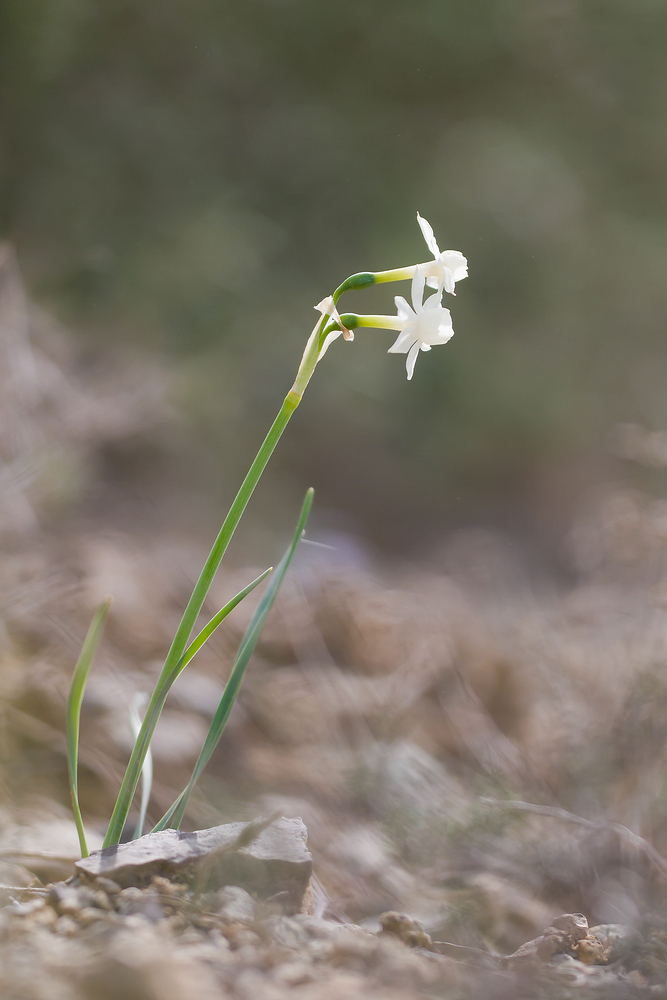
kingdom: Plantae
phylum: Tracheophyta
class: Liliopsida
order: Asparagales
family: Amaryllidaceae
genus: Narcissus
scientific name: Narcissus dubius
